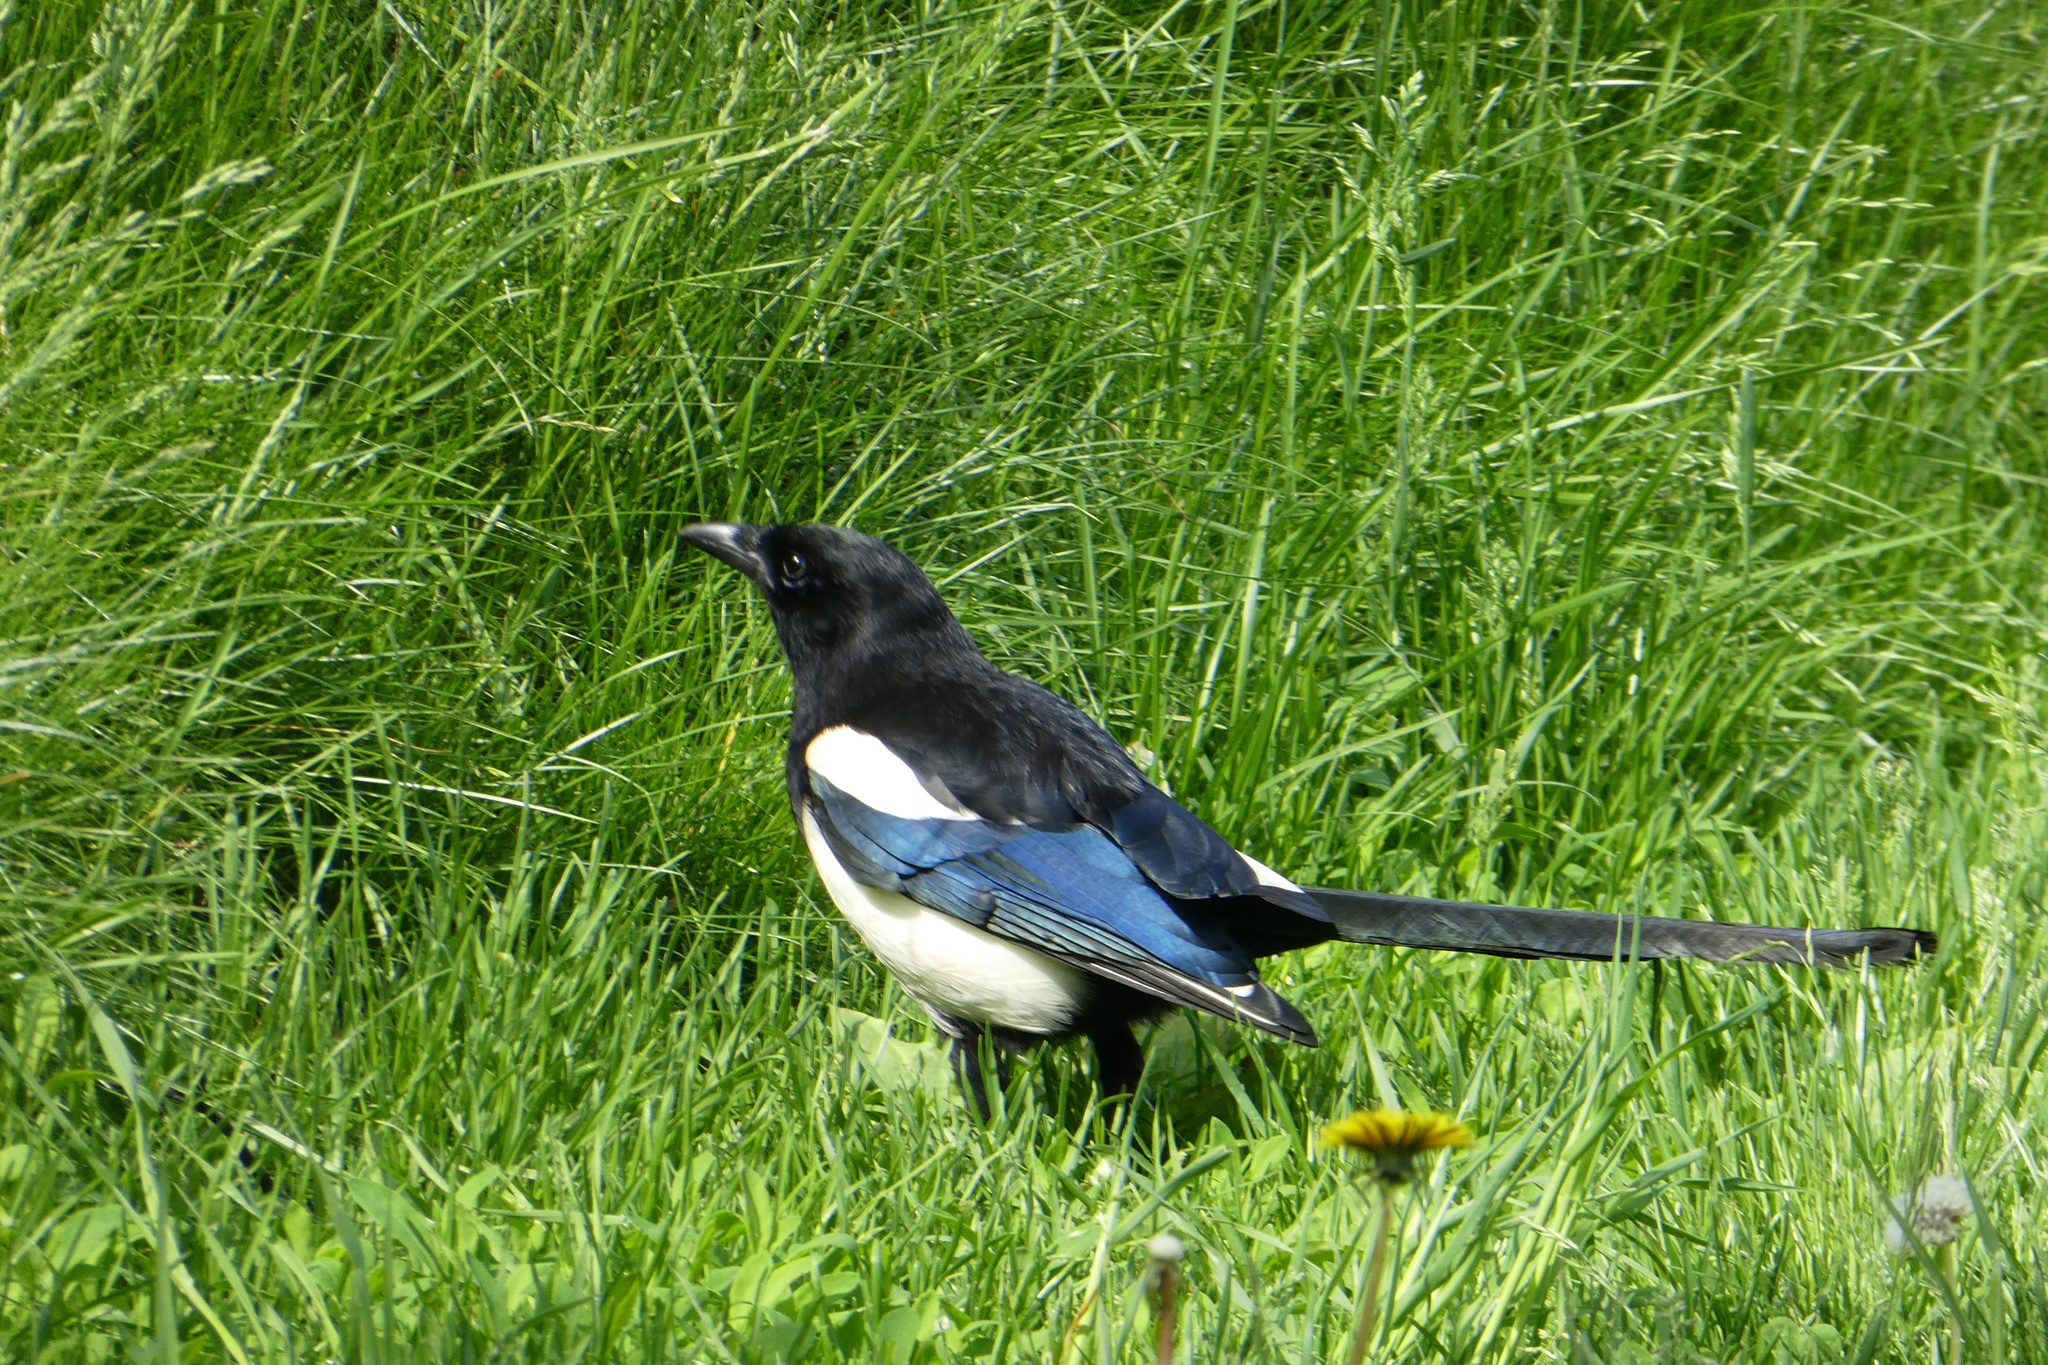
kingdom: Animalia
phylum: Chordata
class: Aves
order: Passeriformes
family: Corvidae
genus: Pica
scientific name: Pica pica
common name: Eurasian magpie
